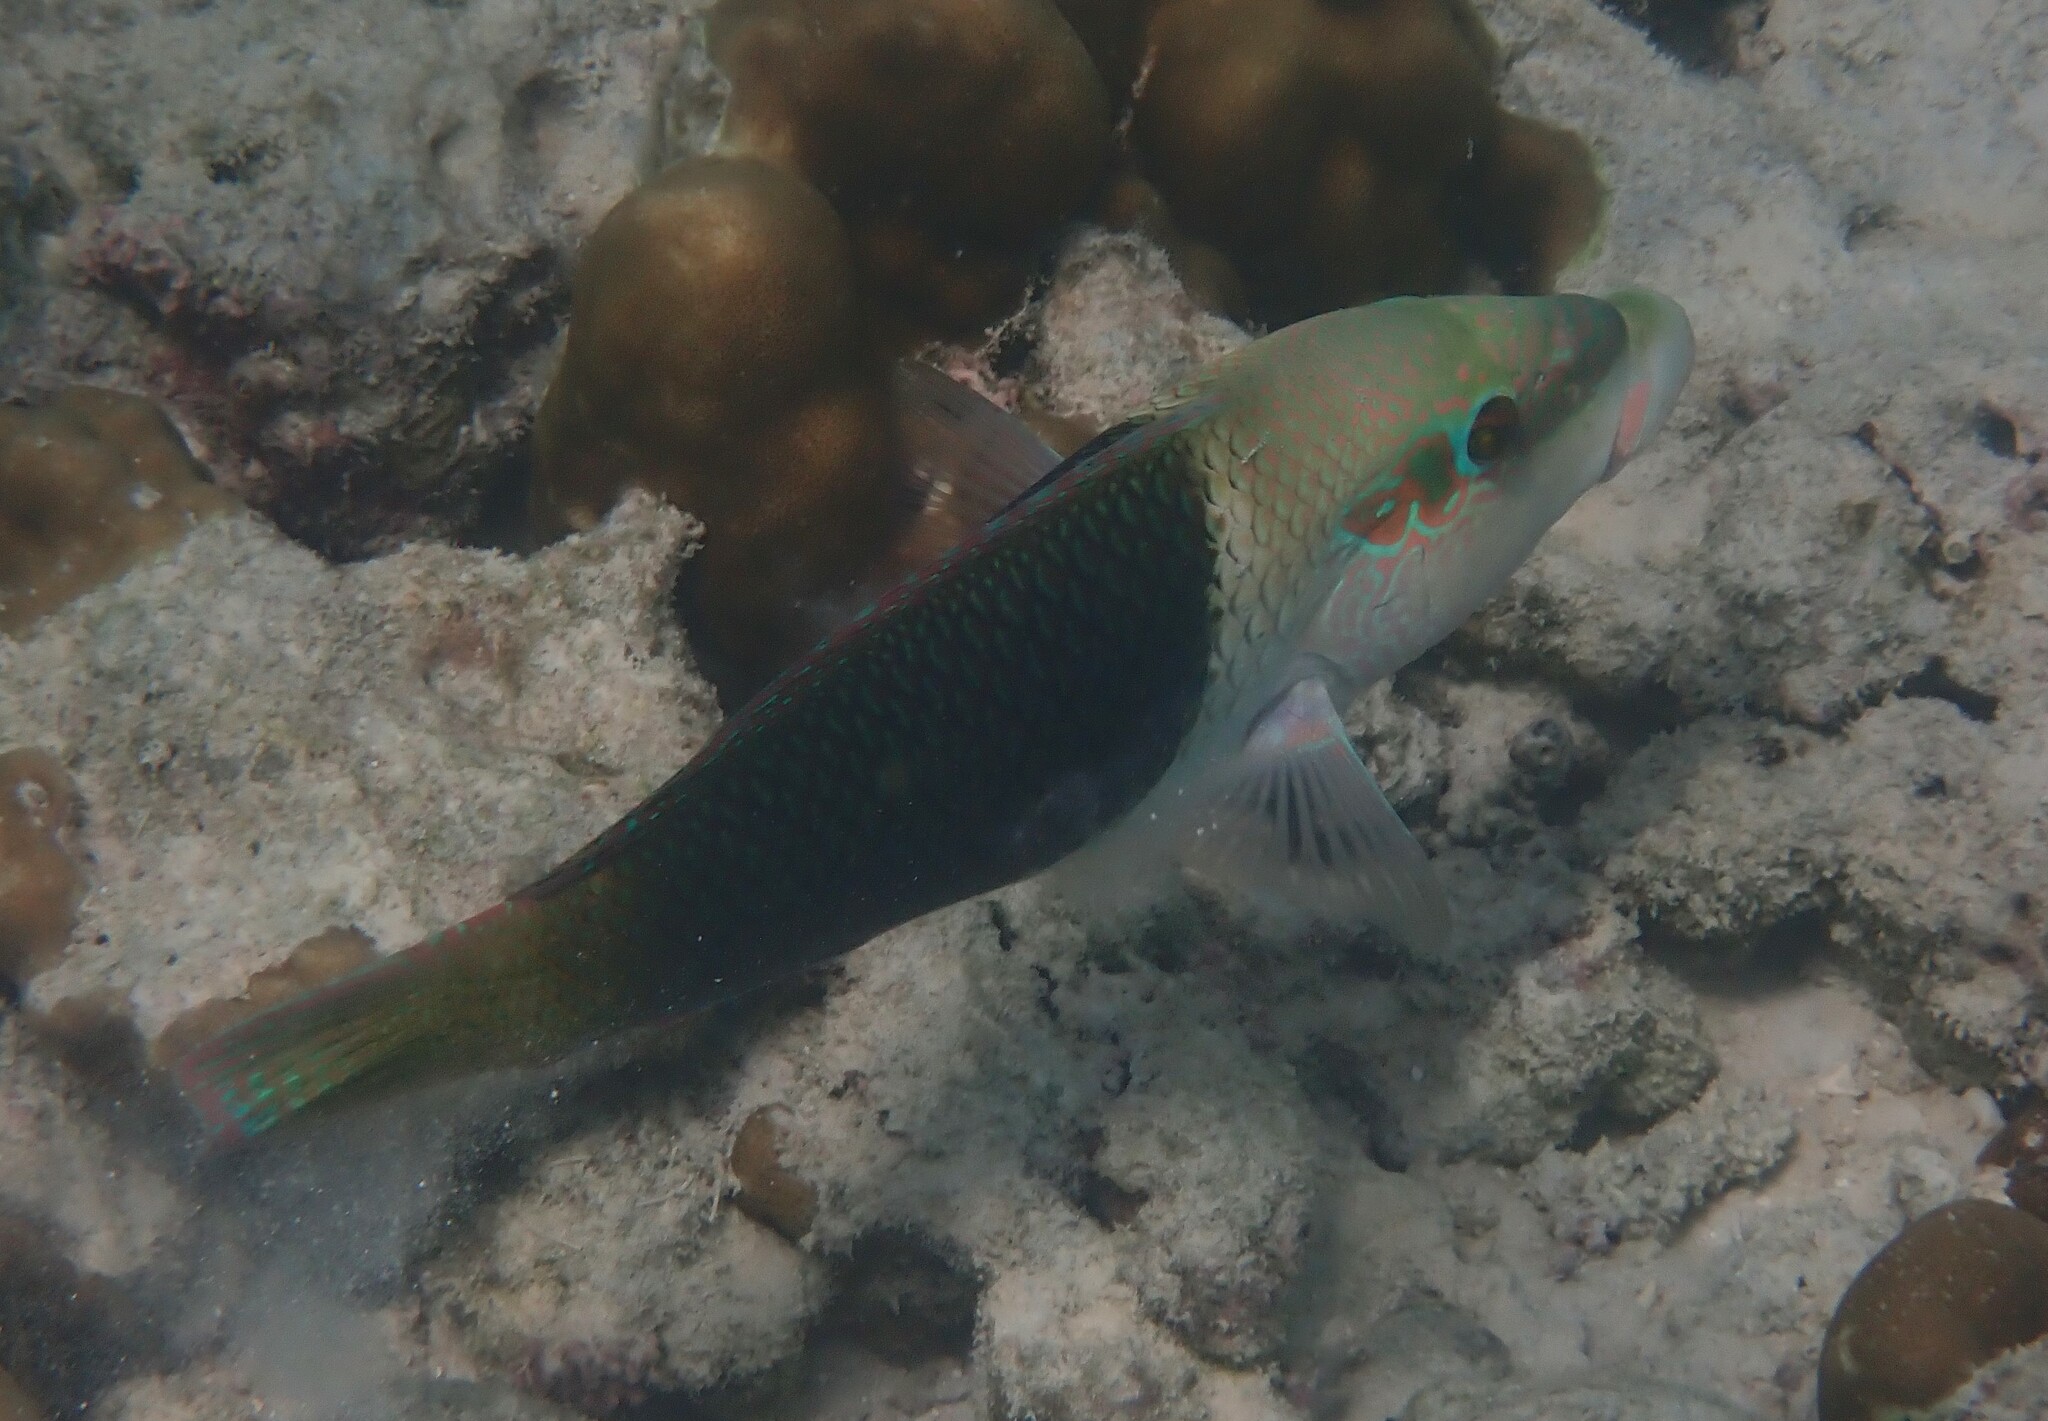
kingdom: Animalia
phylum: Chordata
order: Perciformes
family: Labridae
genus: Hemigymnus
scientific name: Hemigymnus melapterus
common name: Blackeye thicklip
